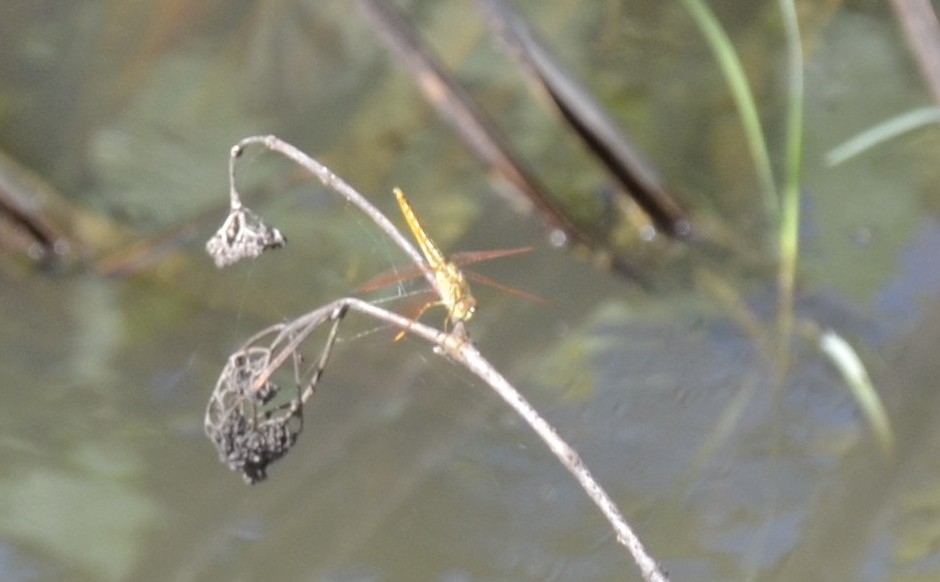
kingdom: Animalia
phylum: Arthropoda
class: Insecta
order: Odonata
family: Libellulidae
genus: Brachythemis
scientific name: Brachythemis contaminata
